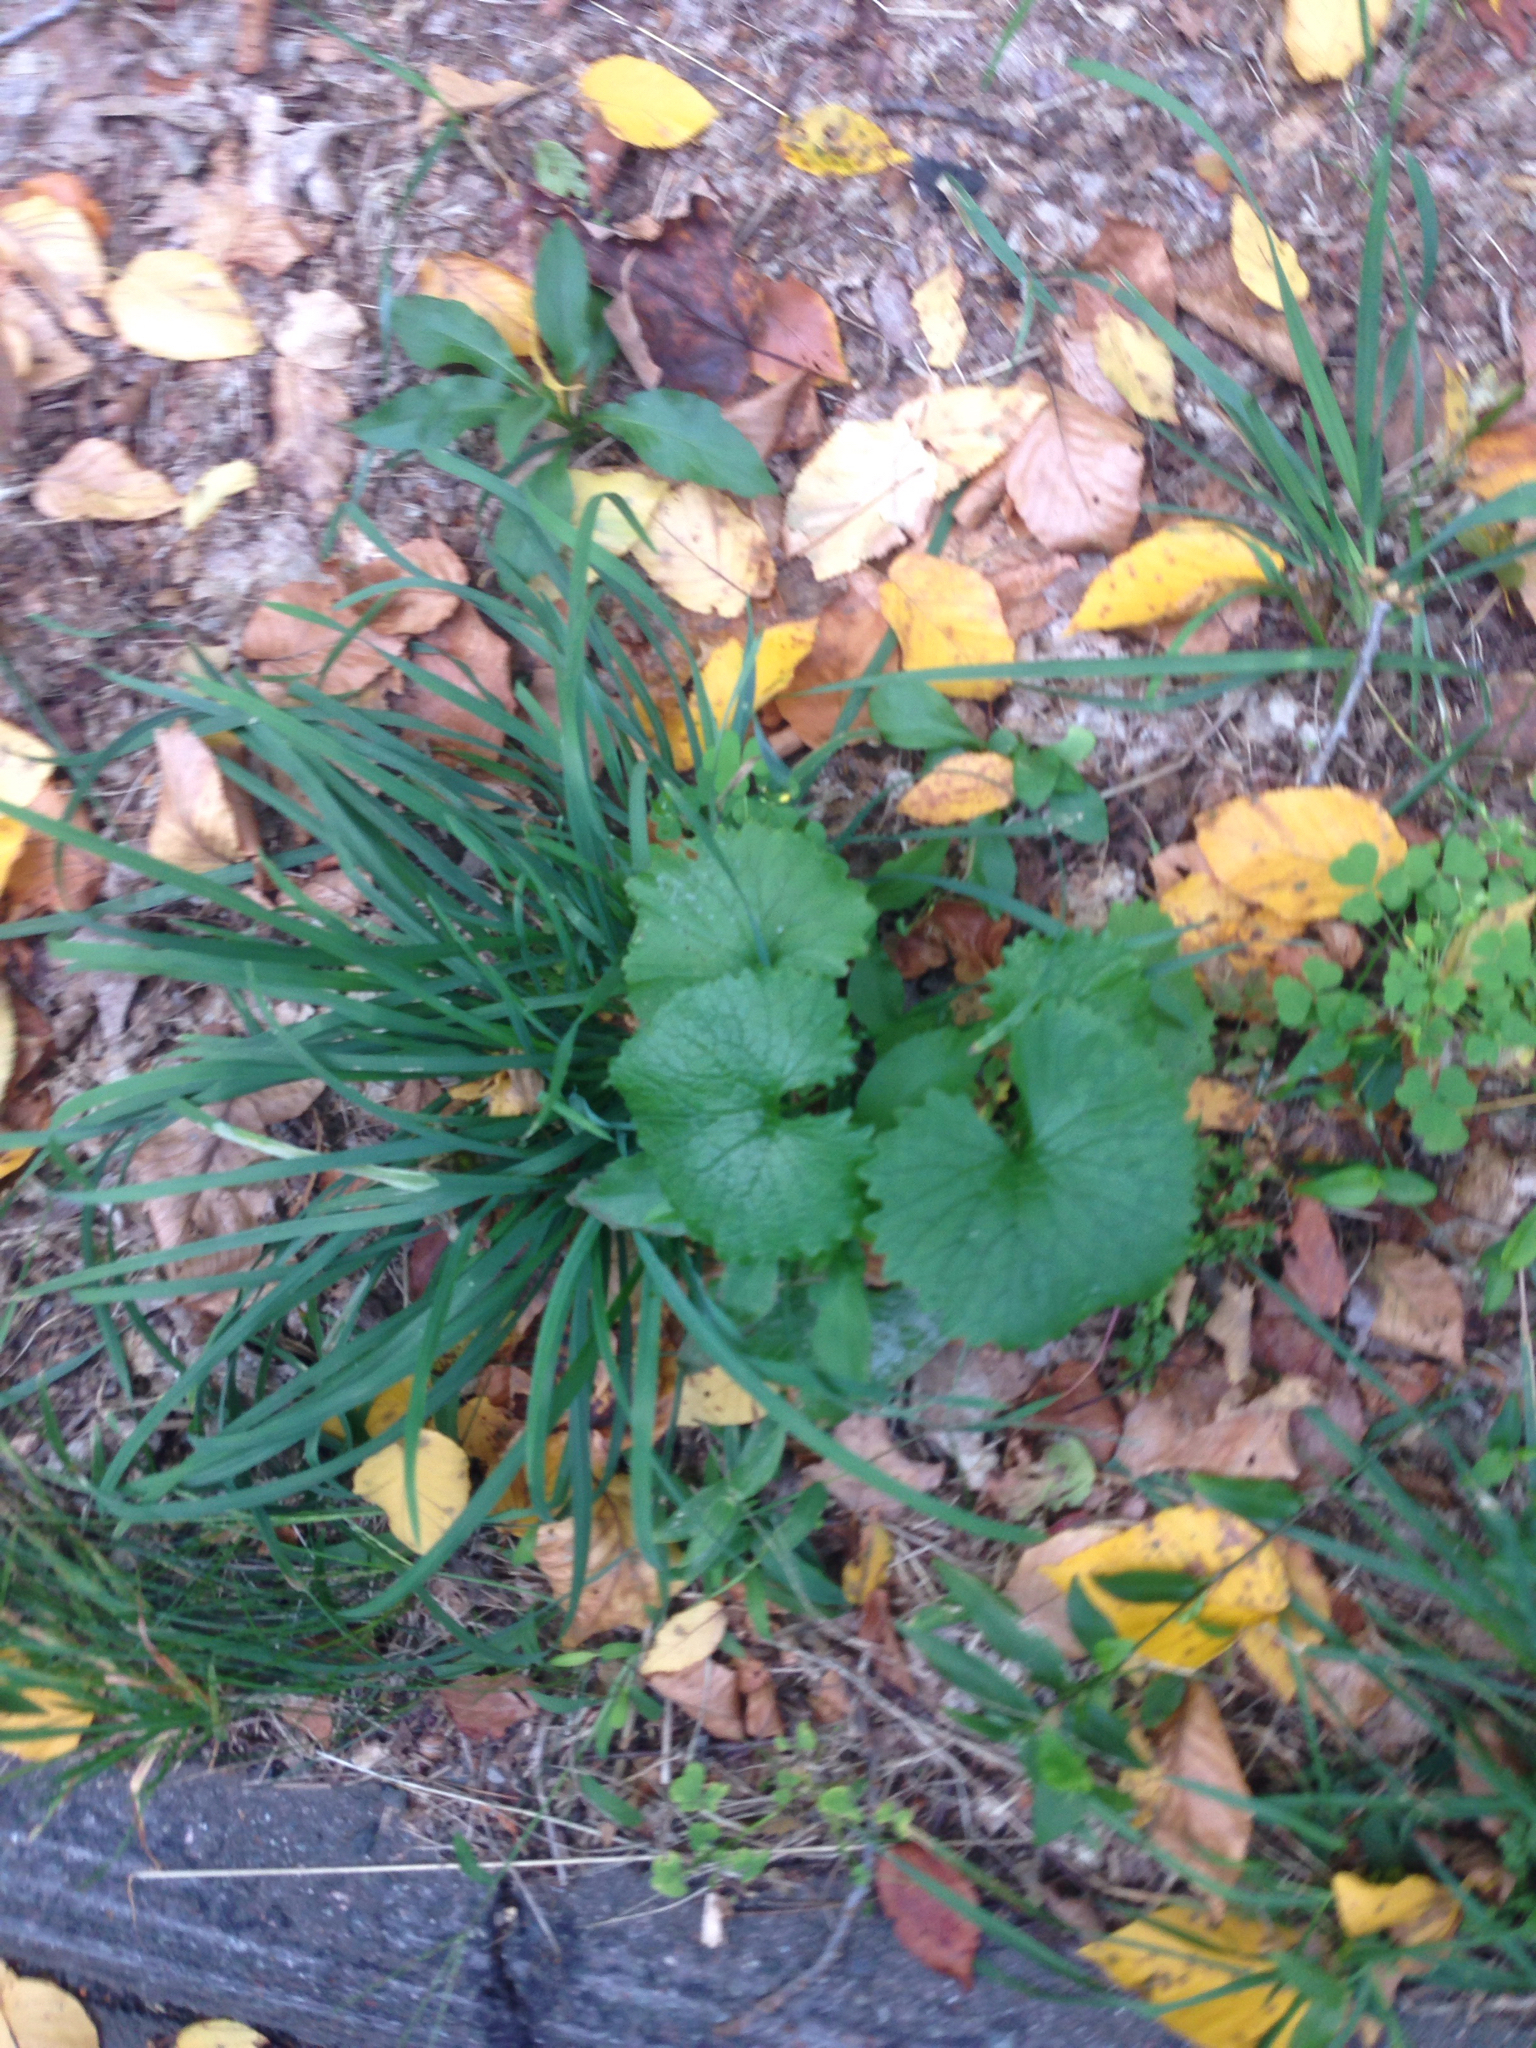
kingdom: Plantae
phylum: Tracheophyta
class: Magnoliopsida
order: Brassicales
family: Brassicaceae
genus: Alliaria
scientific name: Alliaria petiolata
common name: Garlic mustard
